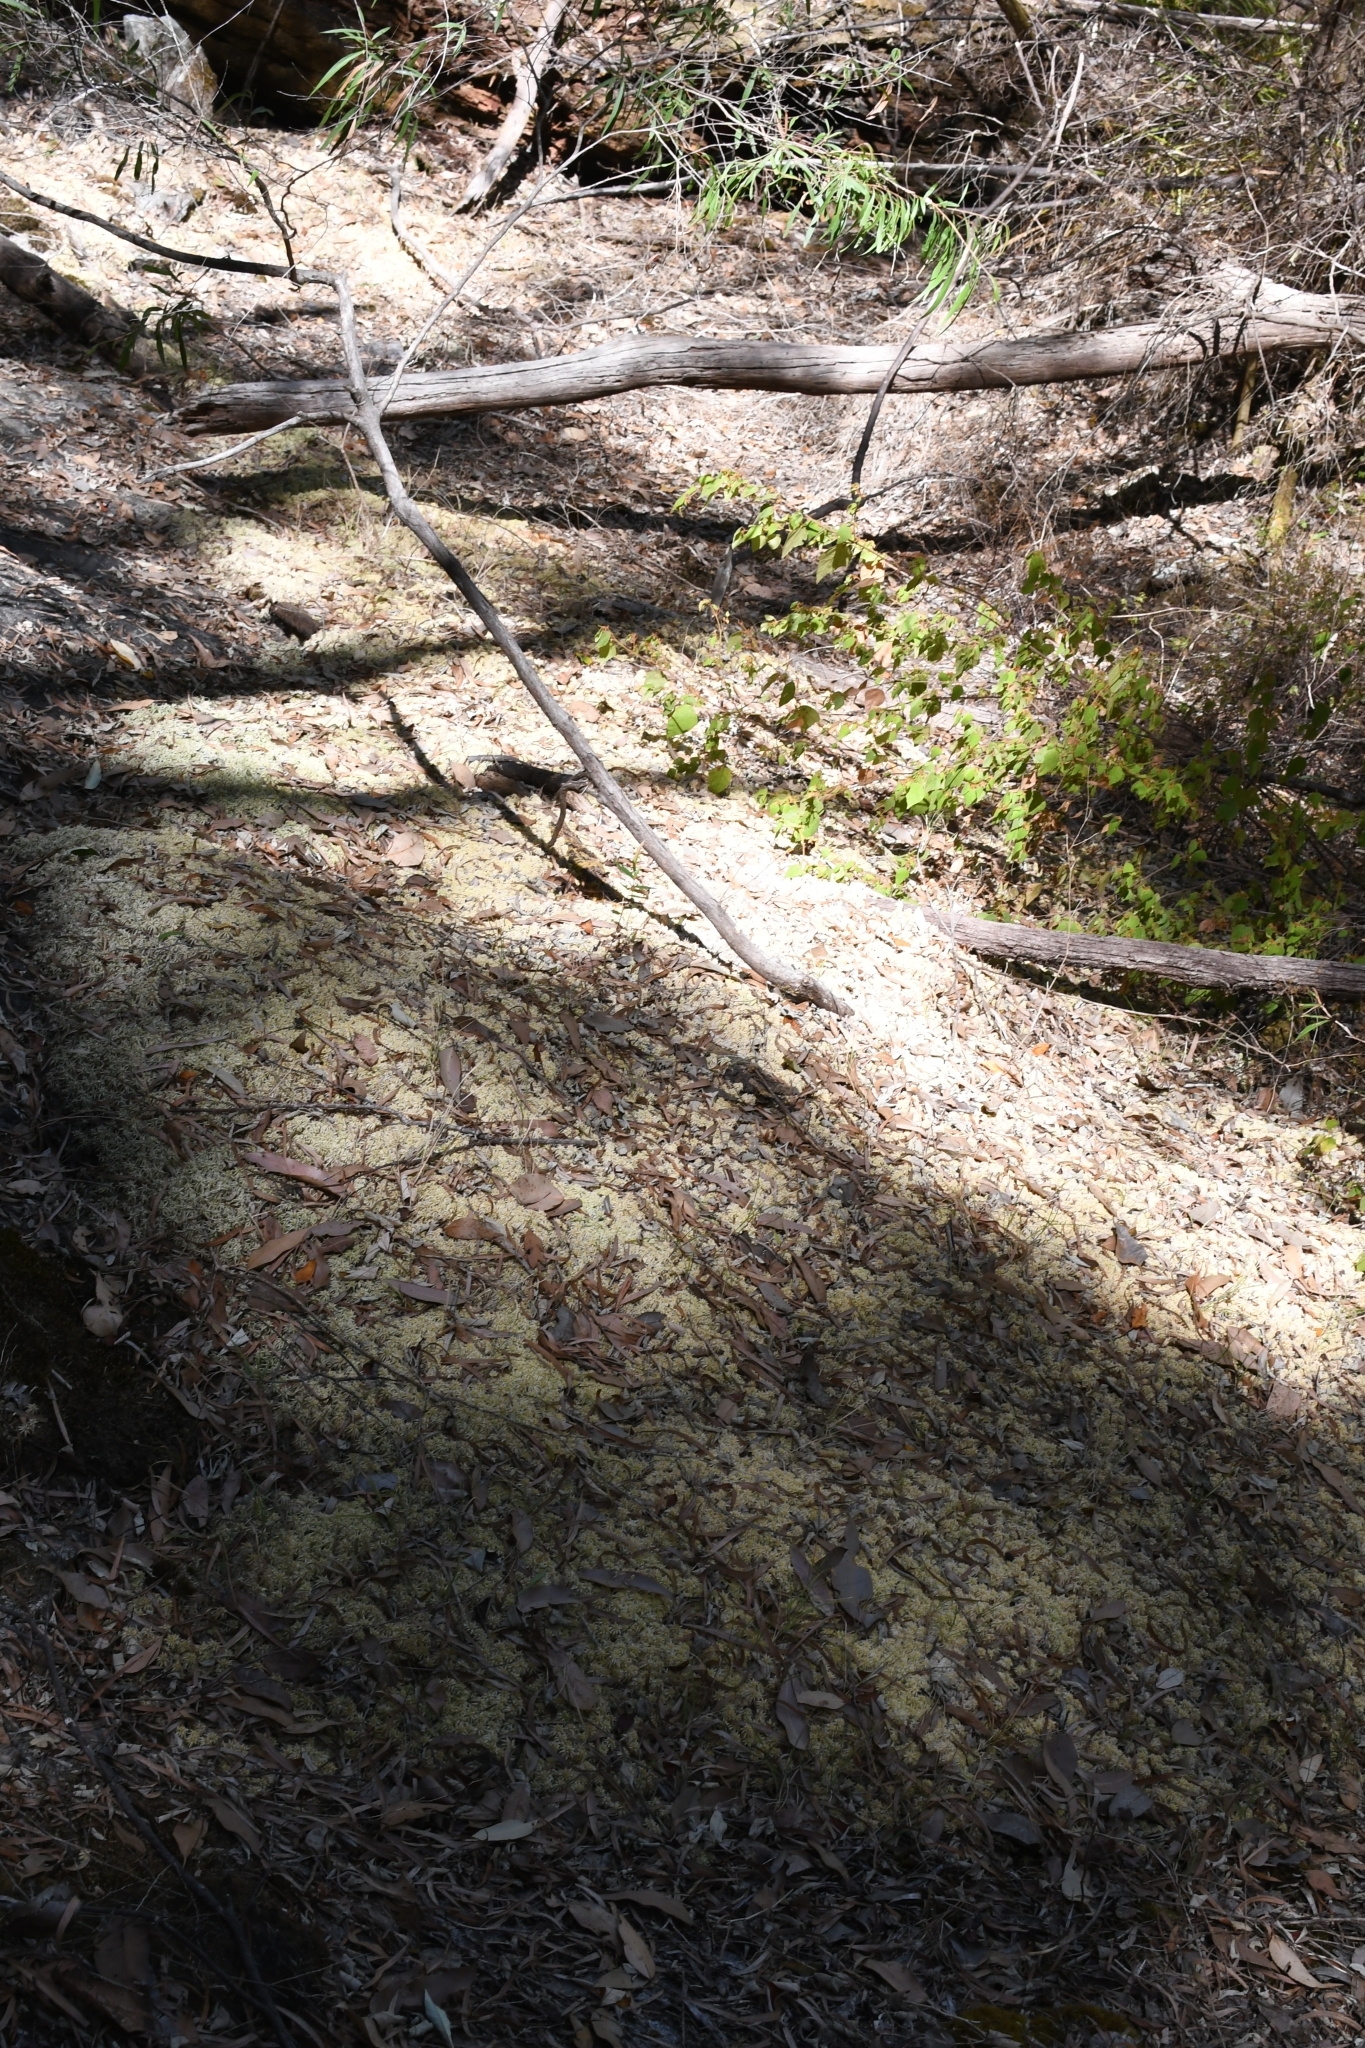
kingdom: Plantae
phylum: Bryophyta
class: Sphagnopsida
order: Sphagnales
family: Sphagnaceae
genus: Sphagnum
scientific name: Sphagnum novozelandicum
